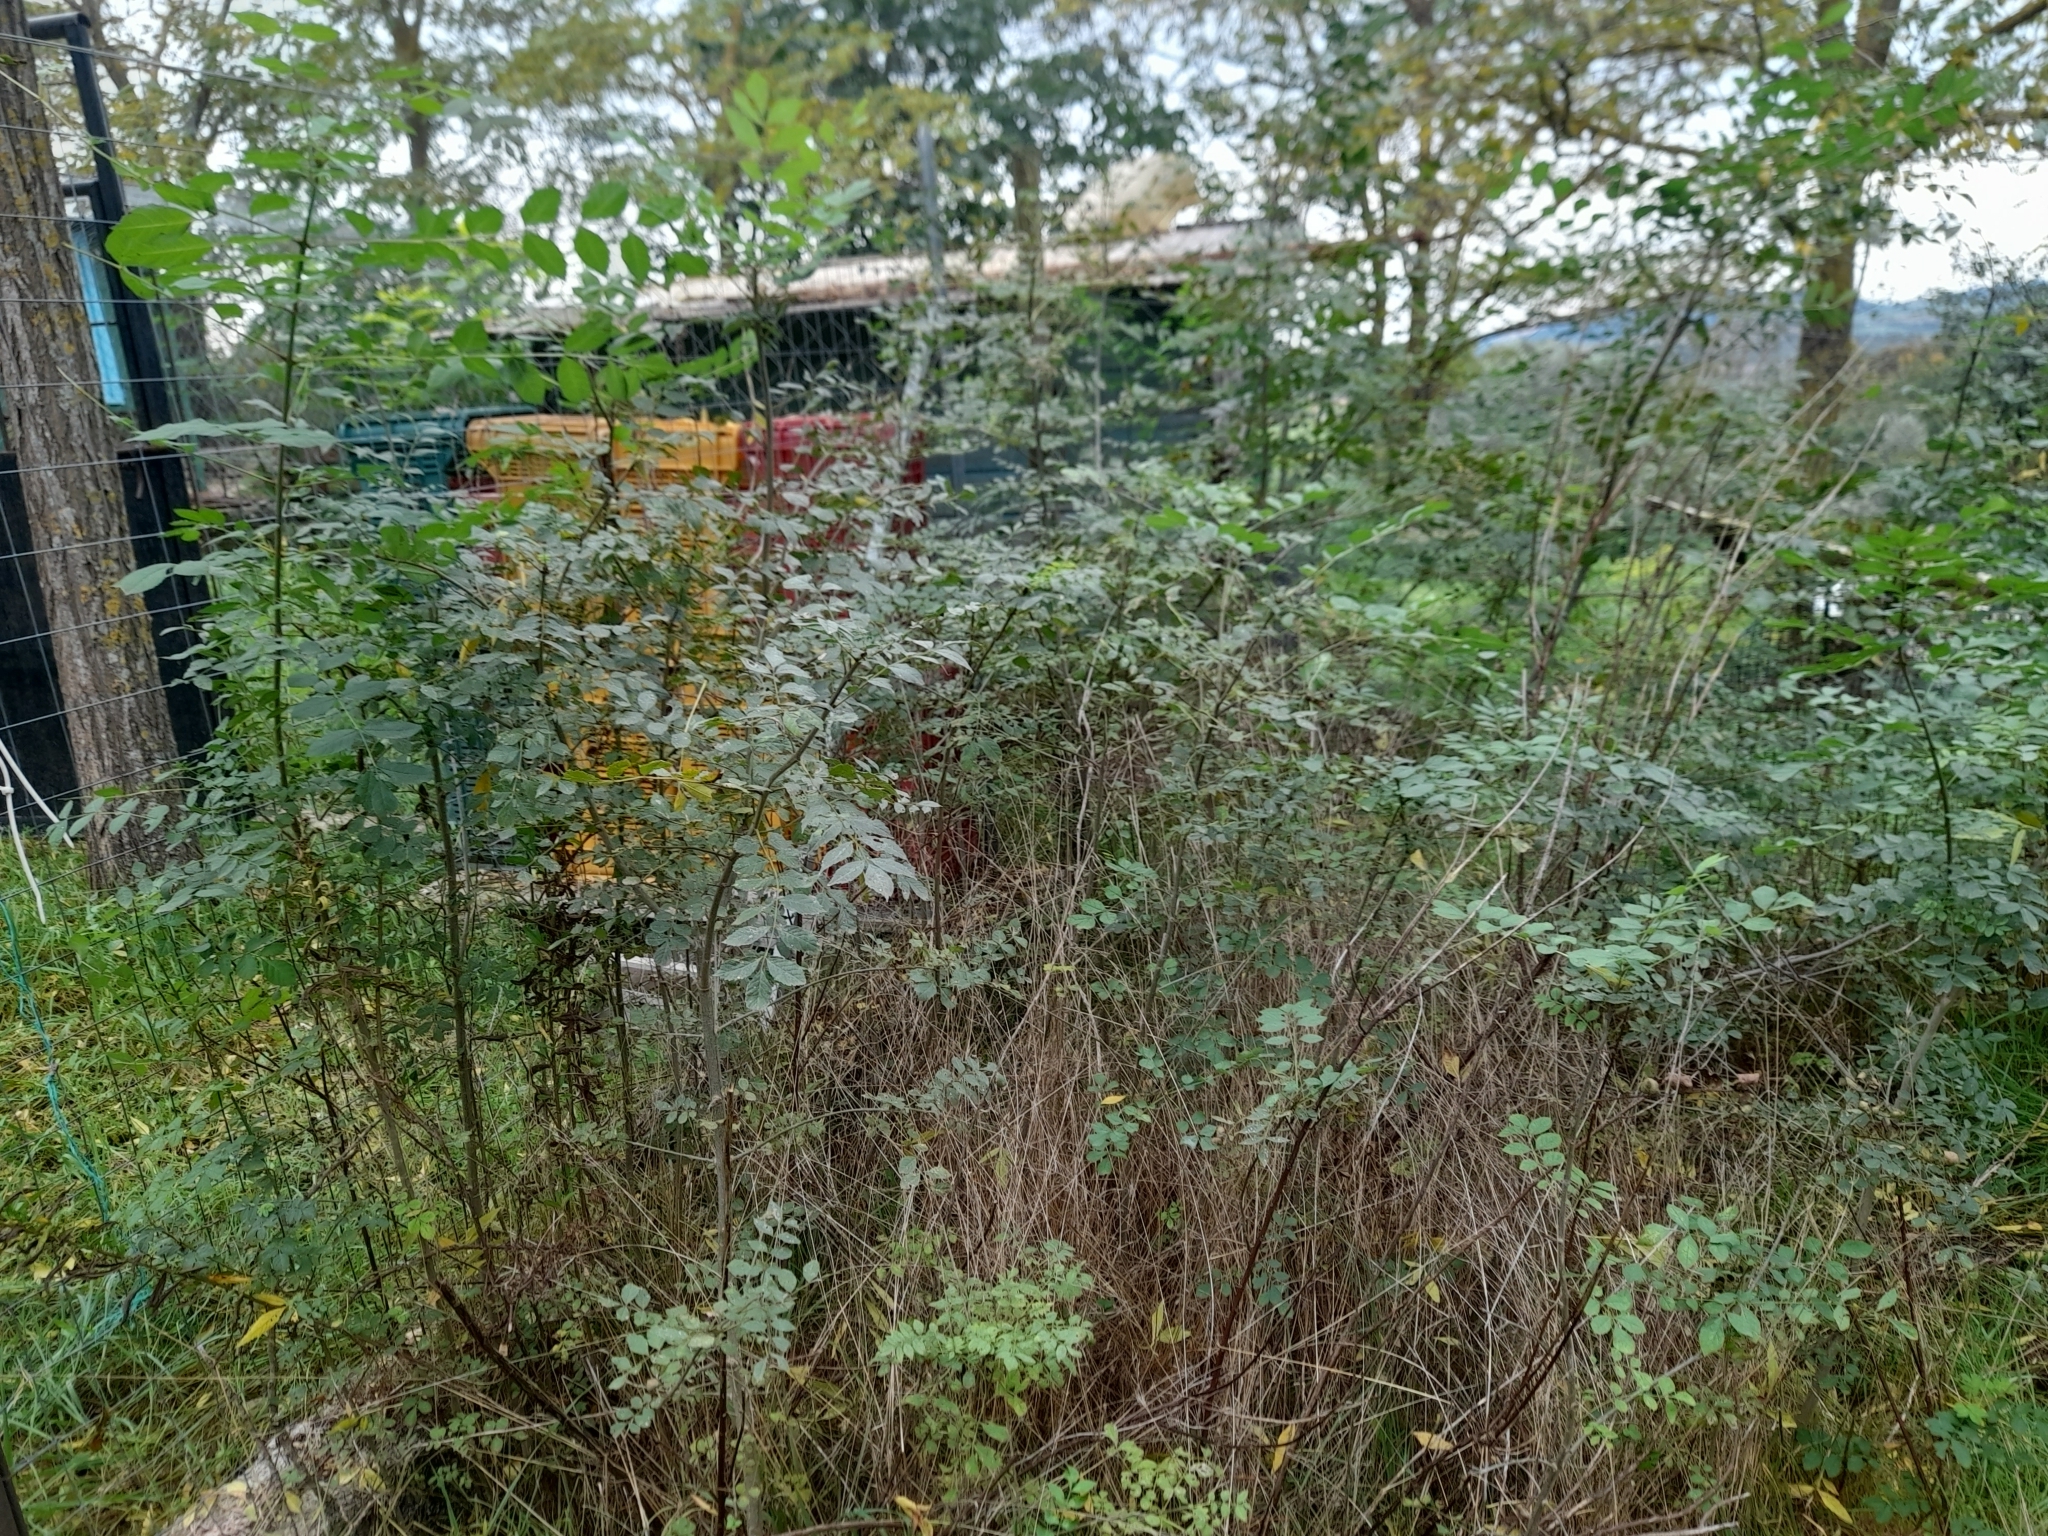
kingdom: Plantae
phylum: Tracheophyta
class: Magnoliopsida
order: Lamiales
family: Oleaceae
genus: Fraxinus
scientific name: Fraxinus angustifolia
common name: Narrow-leafed ash
